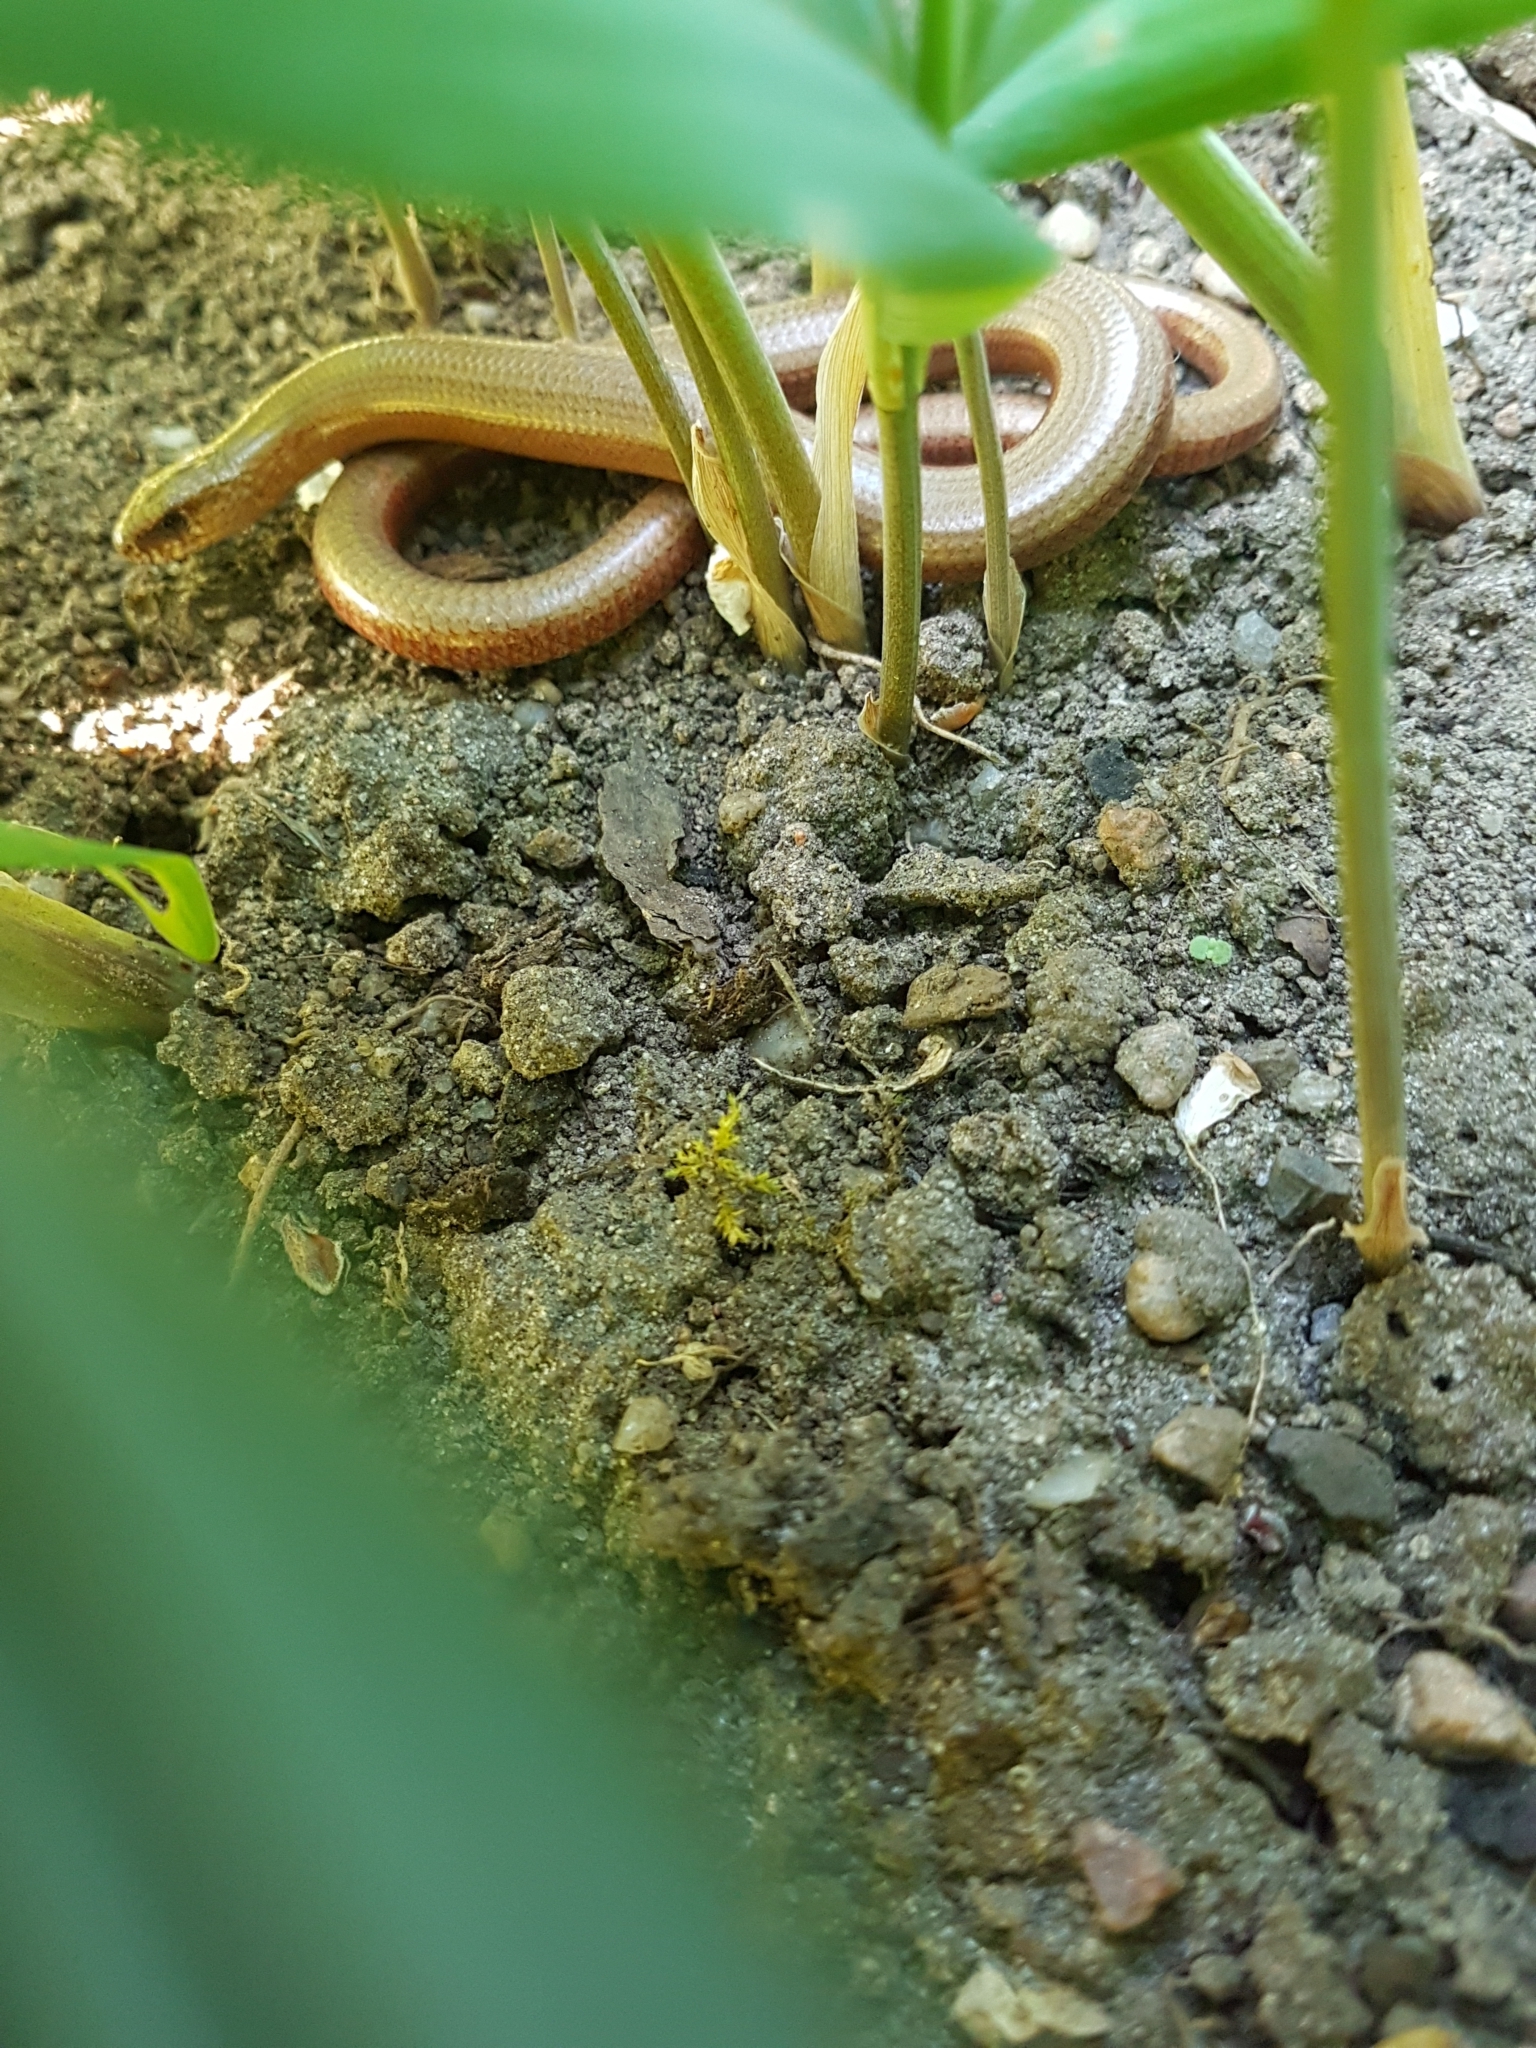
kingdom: Animalia
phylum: Chordata
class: Squamata
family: Anguidae
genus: Anguis
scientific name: Anguis fragilis
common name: Slow worm
